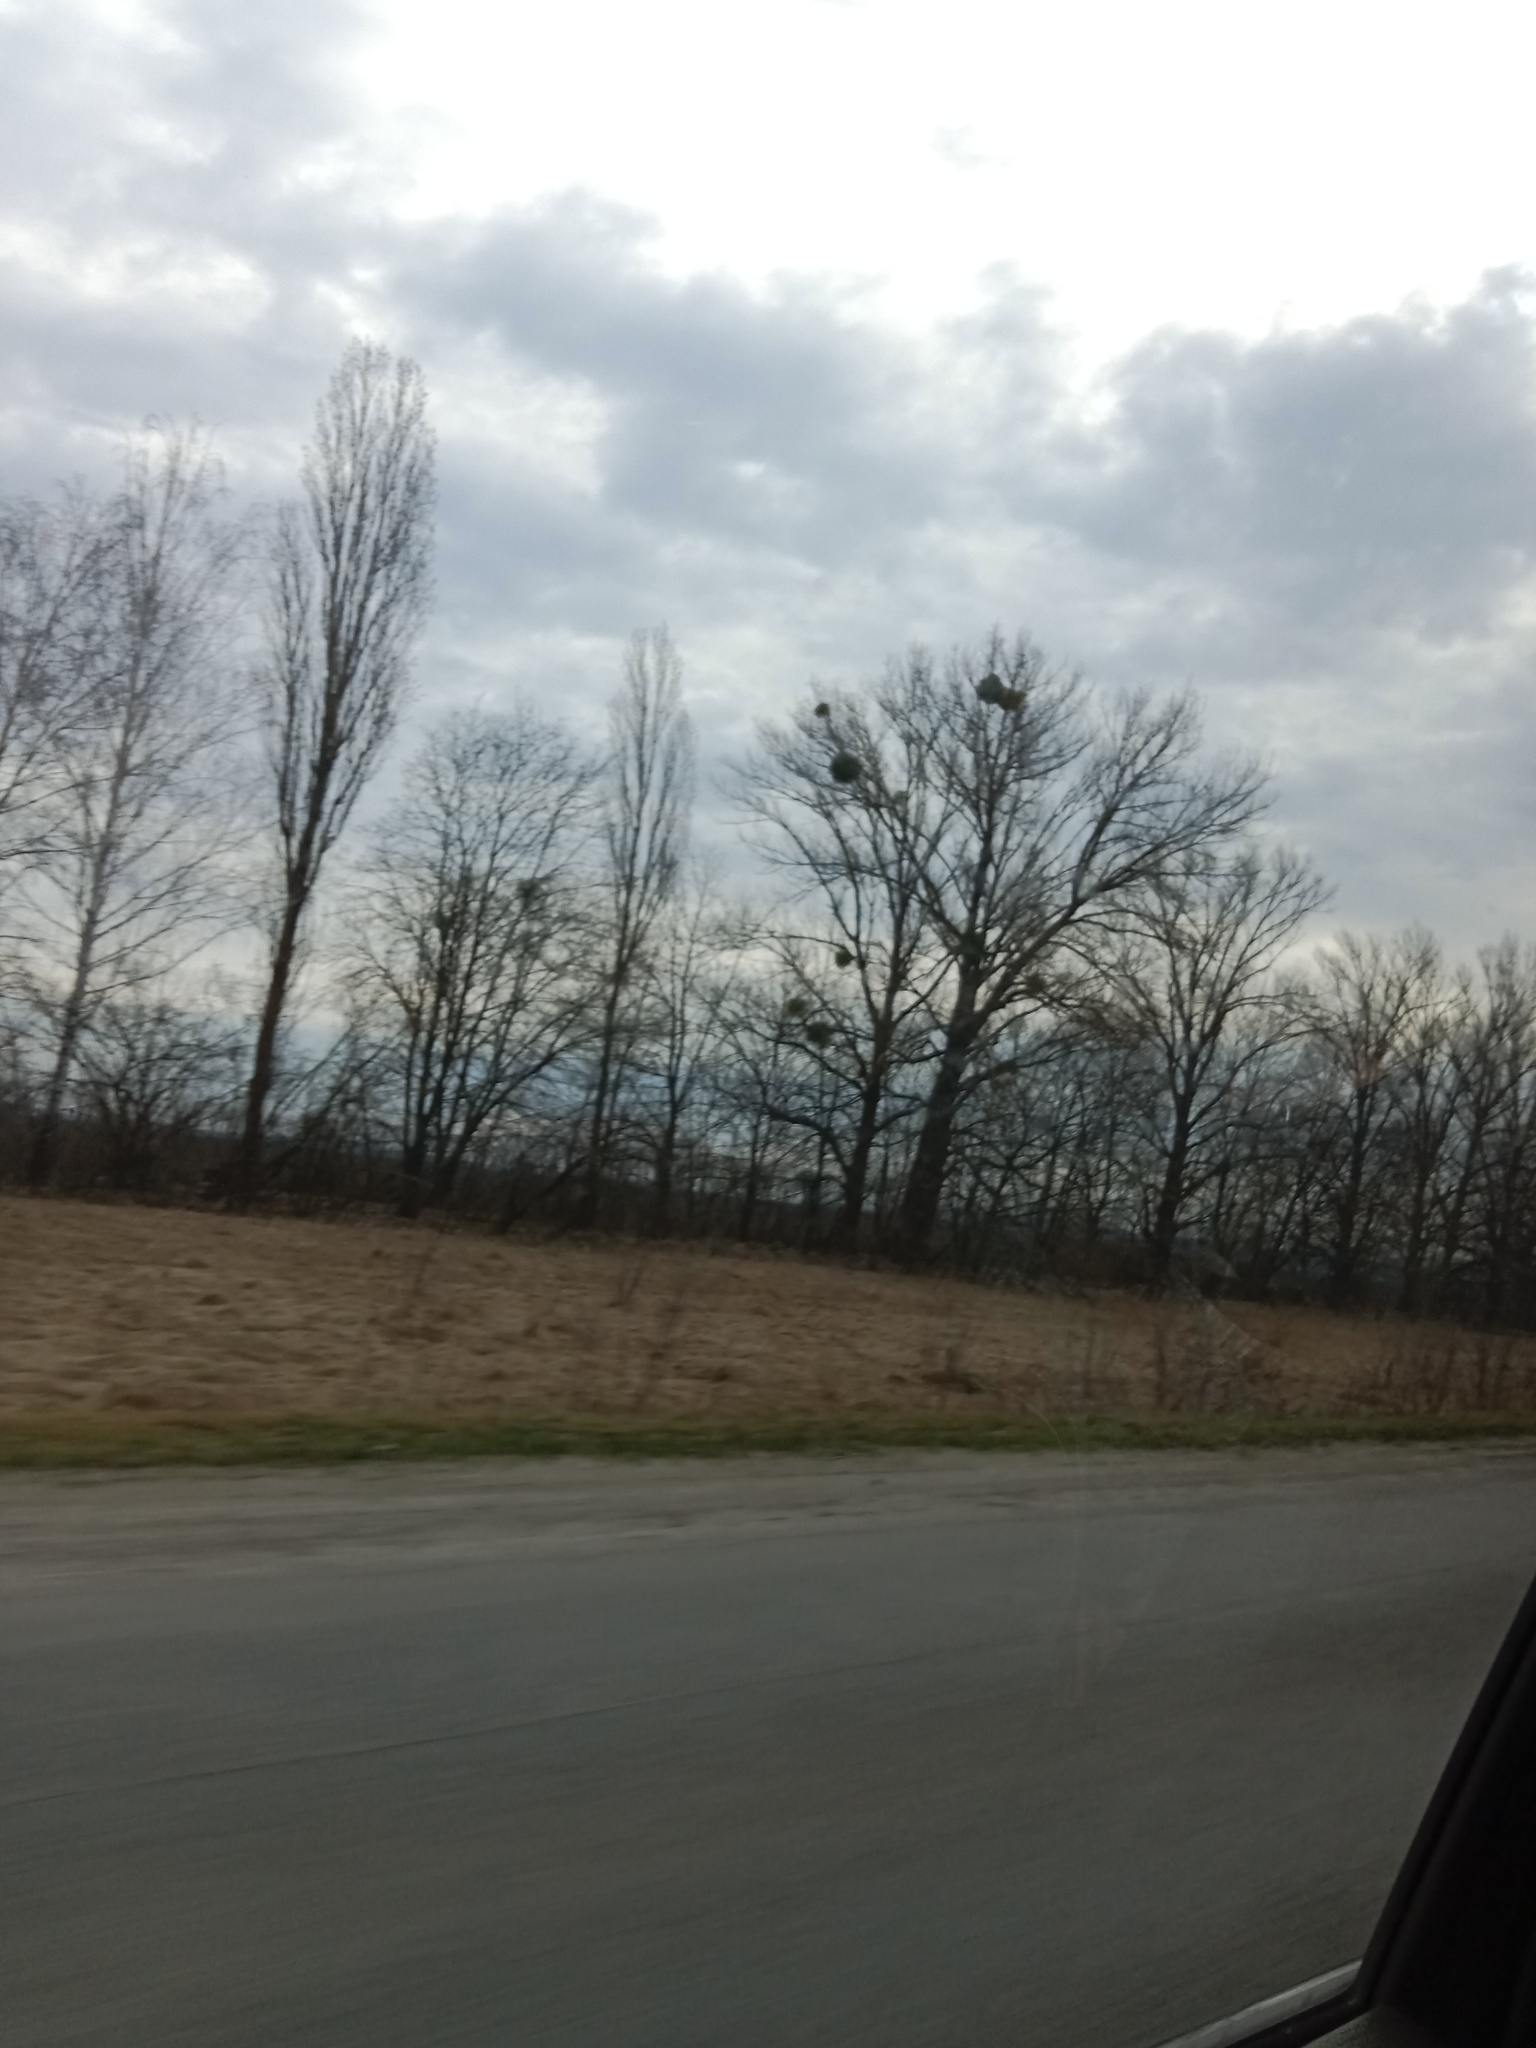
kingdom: Plantae
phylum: Tracheophyta
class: Magnoliopsida
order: Santalales
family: Viscaceae
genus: Viscum
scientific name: Viscum album
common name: Mistletoe
